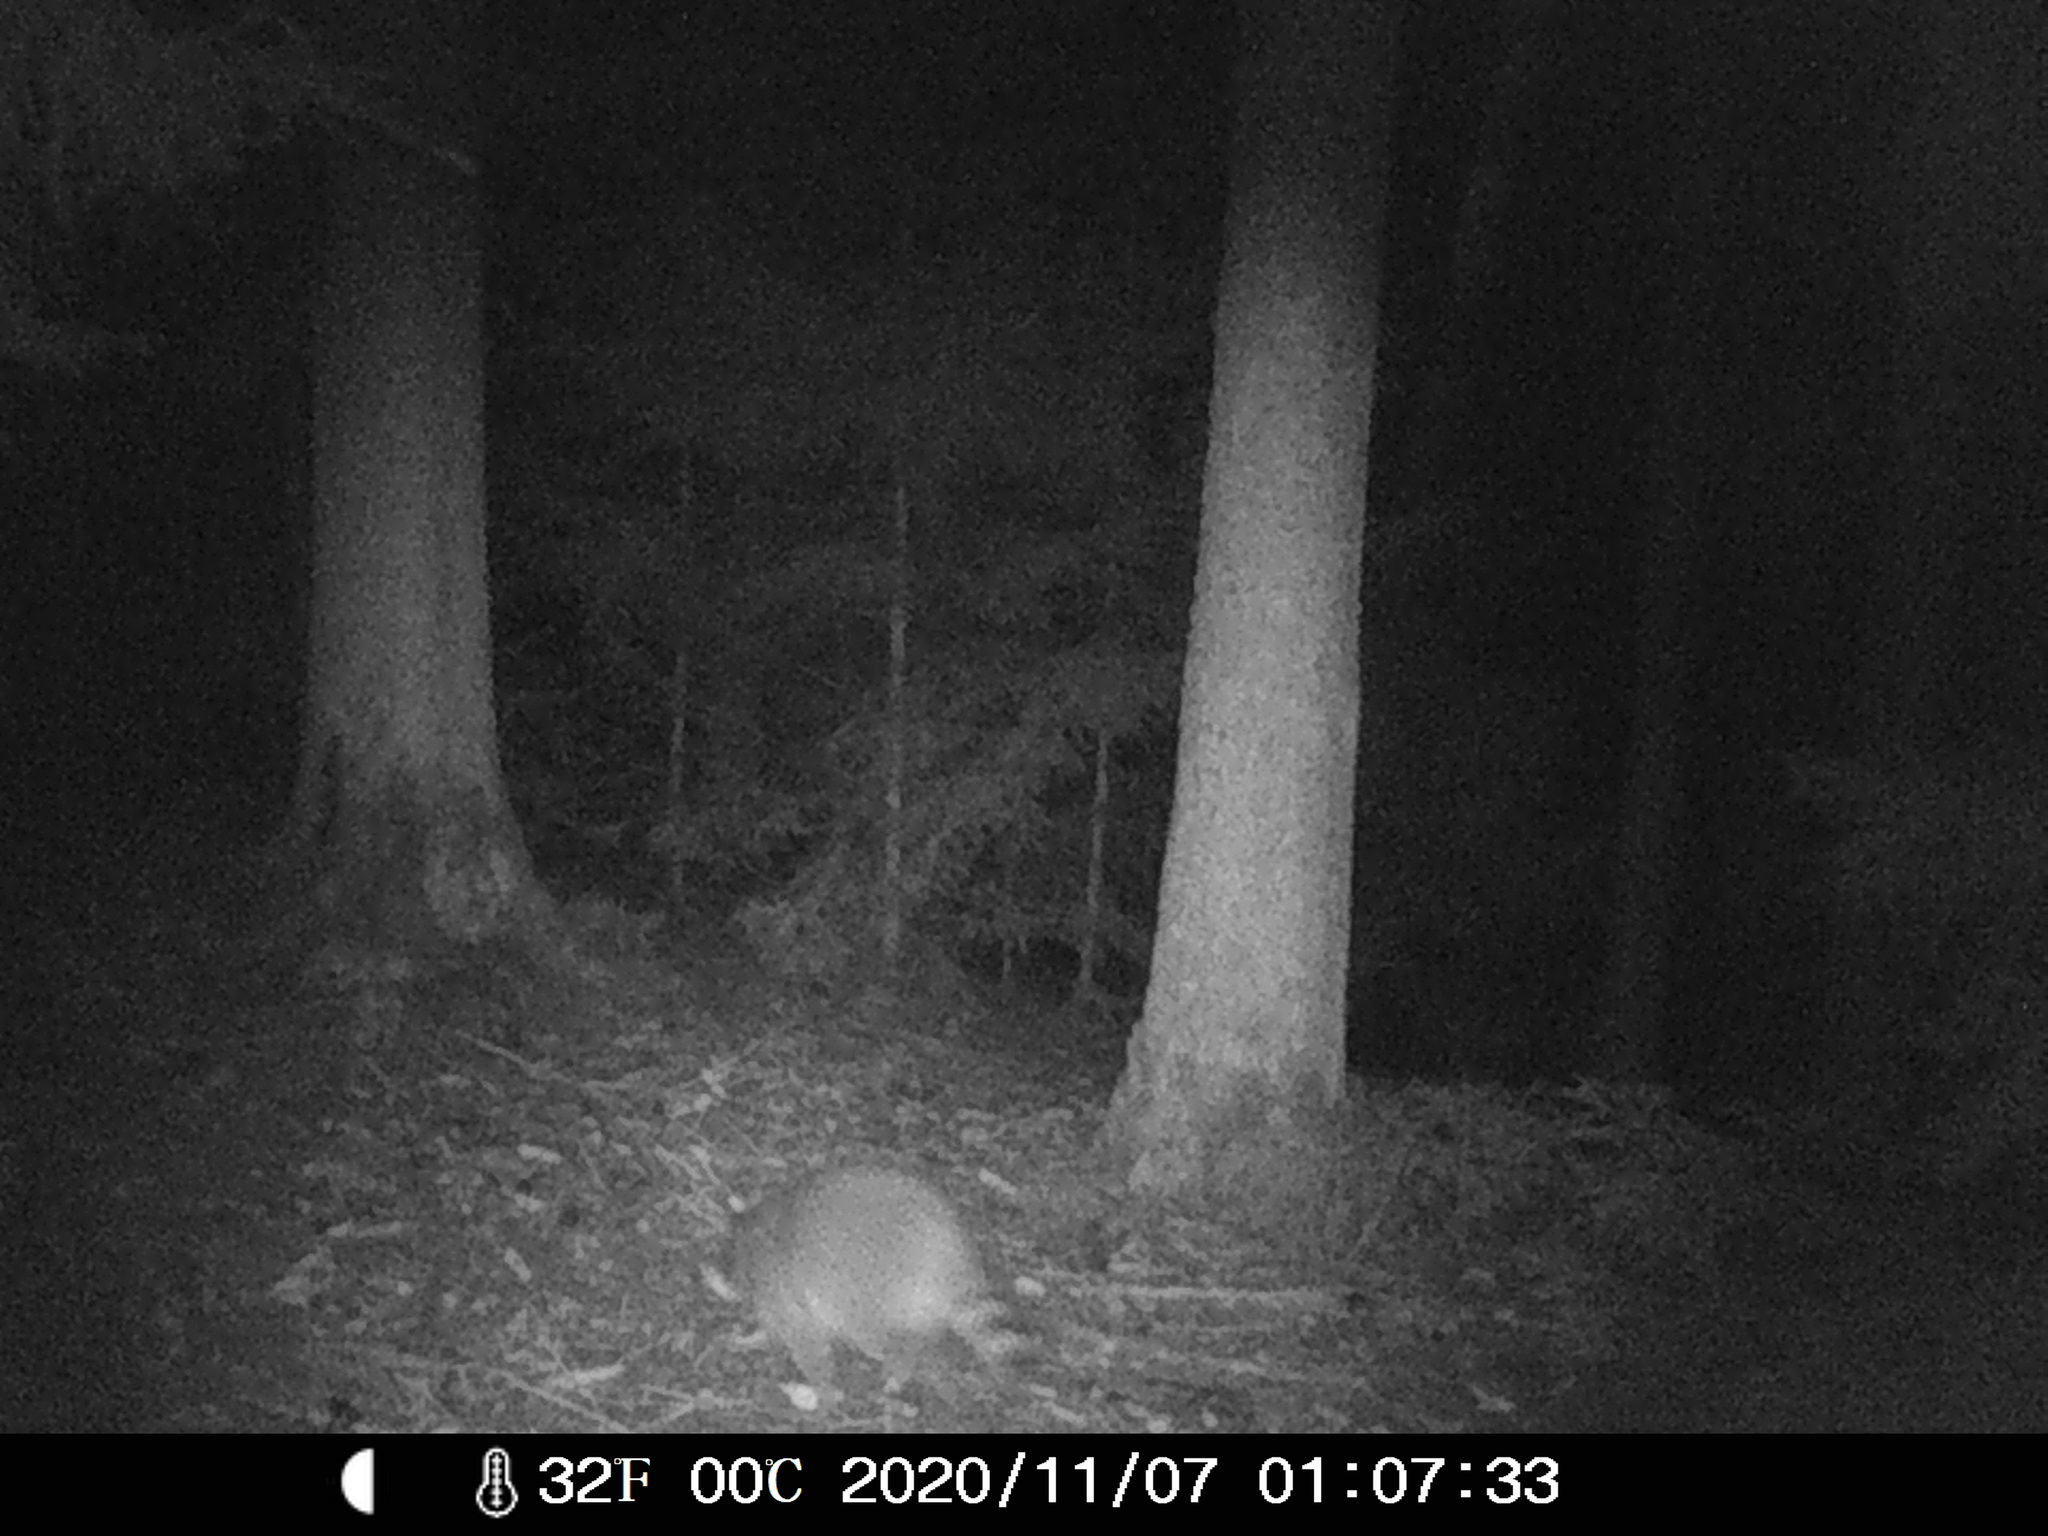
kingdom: Animalia
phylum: Chordata
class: Mammalia
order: Carnivora
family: Procyonidae
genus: Procyon
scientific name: Procyon lotor
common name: Raccoon
